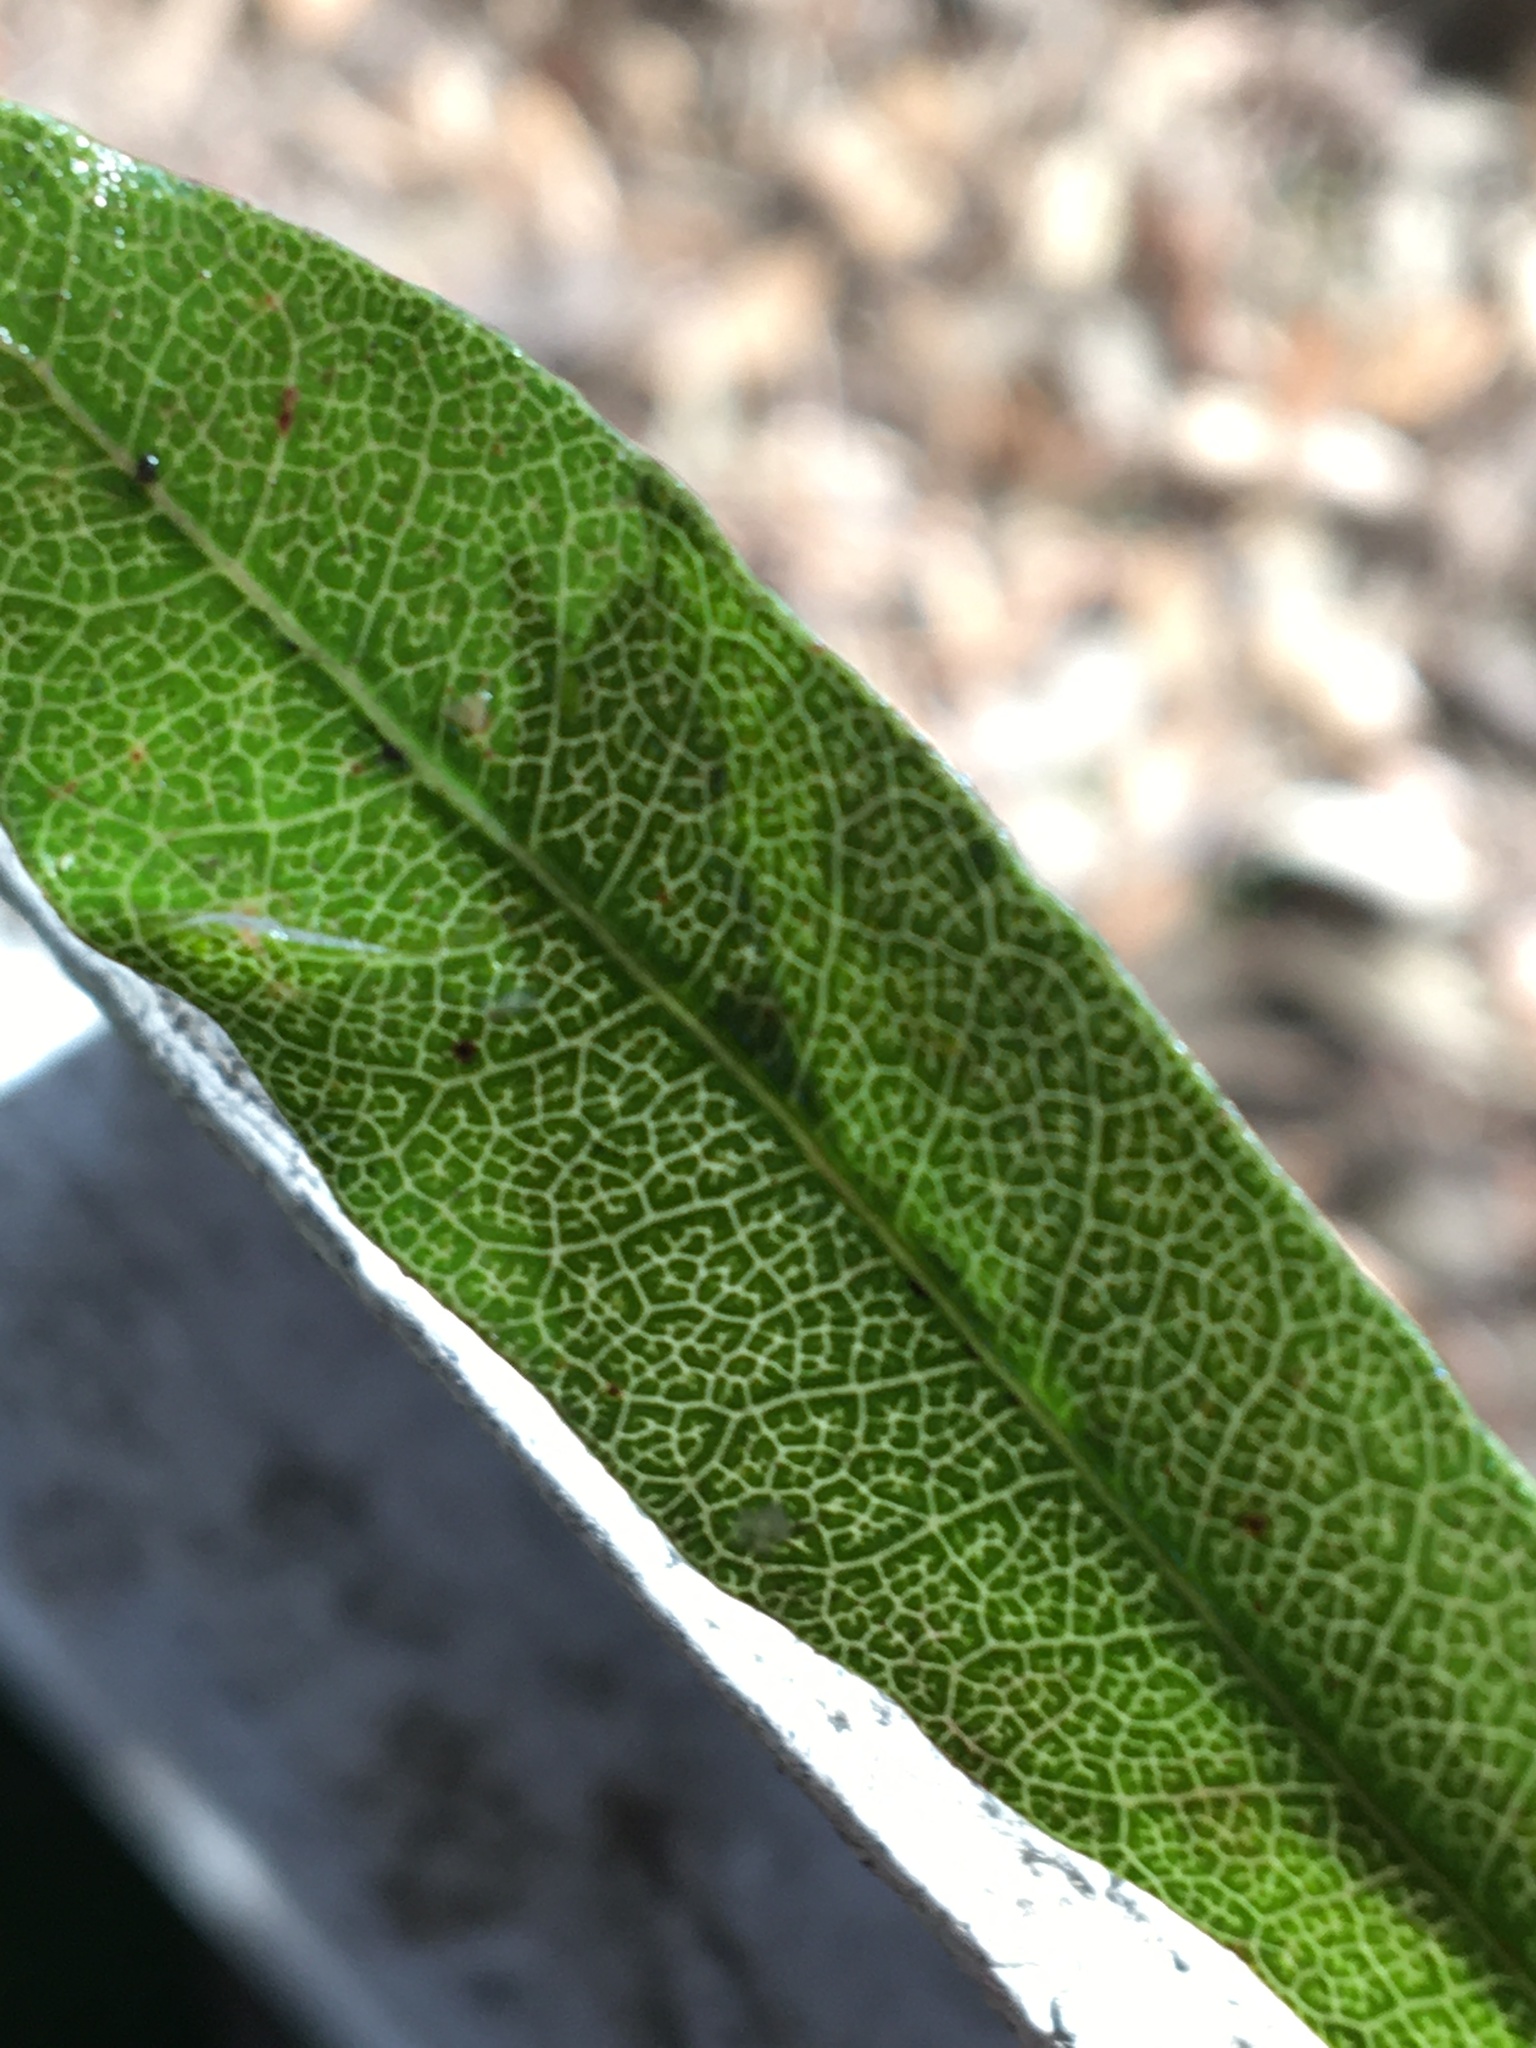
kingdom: Plantae
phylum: Tracheophyta
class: Magnoliopsida
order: Sapindales
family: Sapindaceae
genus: Dodonaea
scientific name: Dodonaea viscosa
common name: Hopbush
